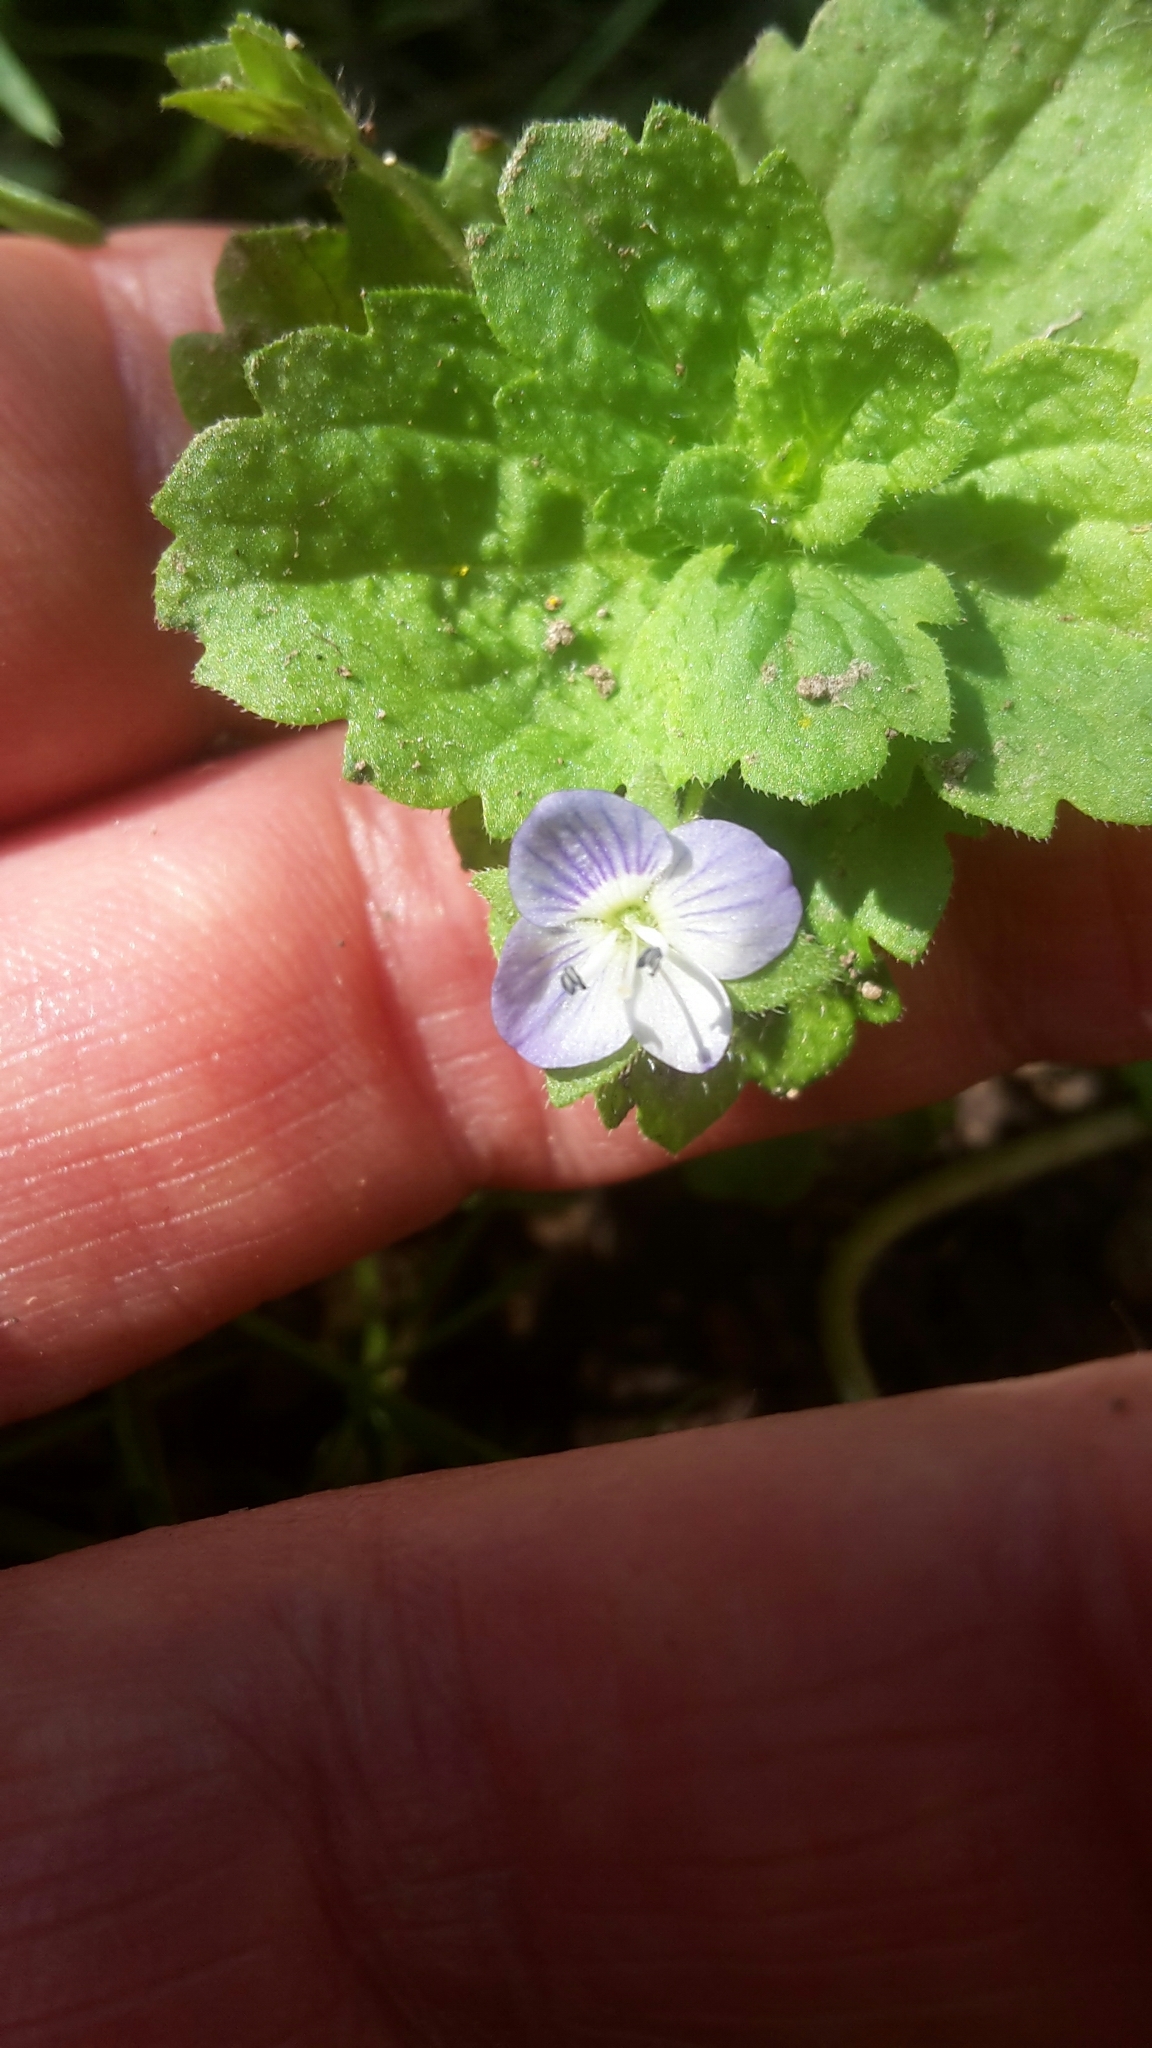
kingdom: Plantae
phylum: Tracheophyta
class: Magnoliopsida
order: Lamiales
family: Plantaginaceae
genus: Veronica
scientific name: Veronica persica
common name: Common field-speedwell
